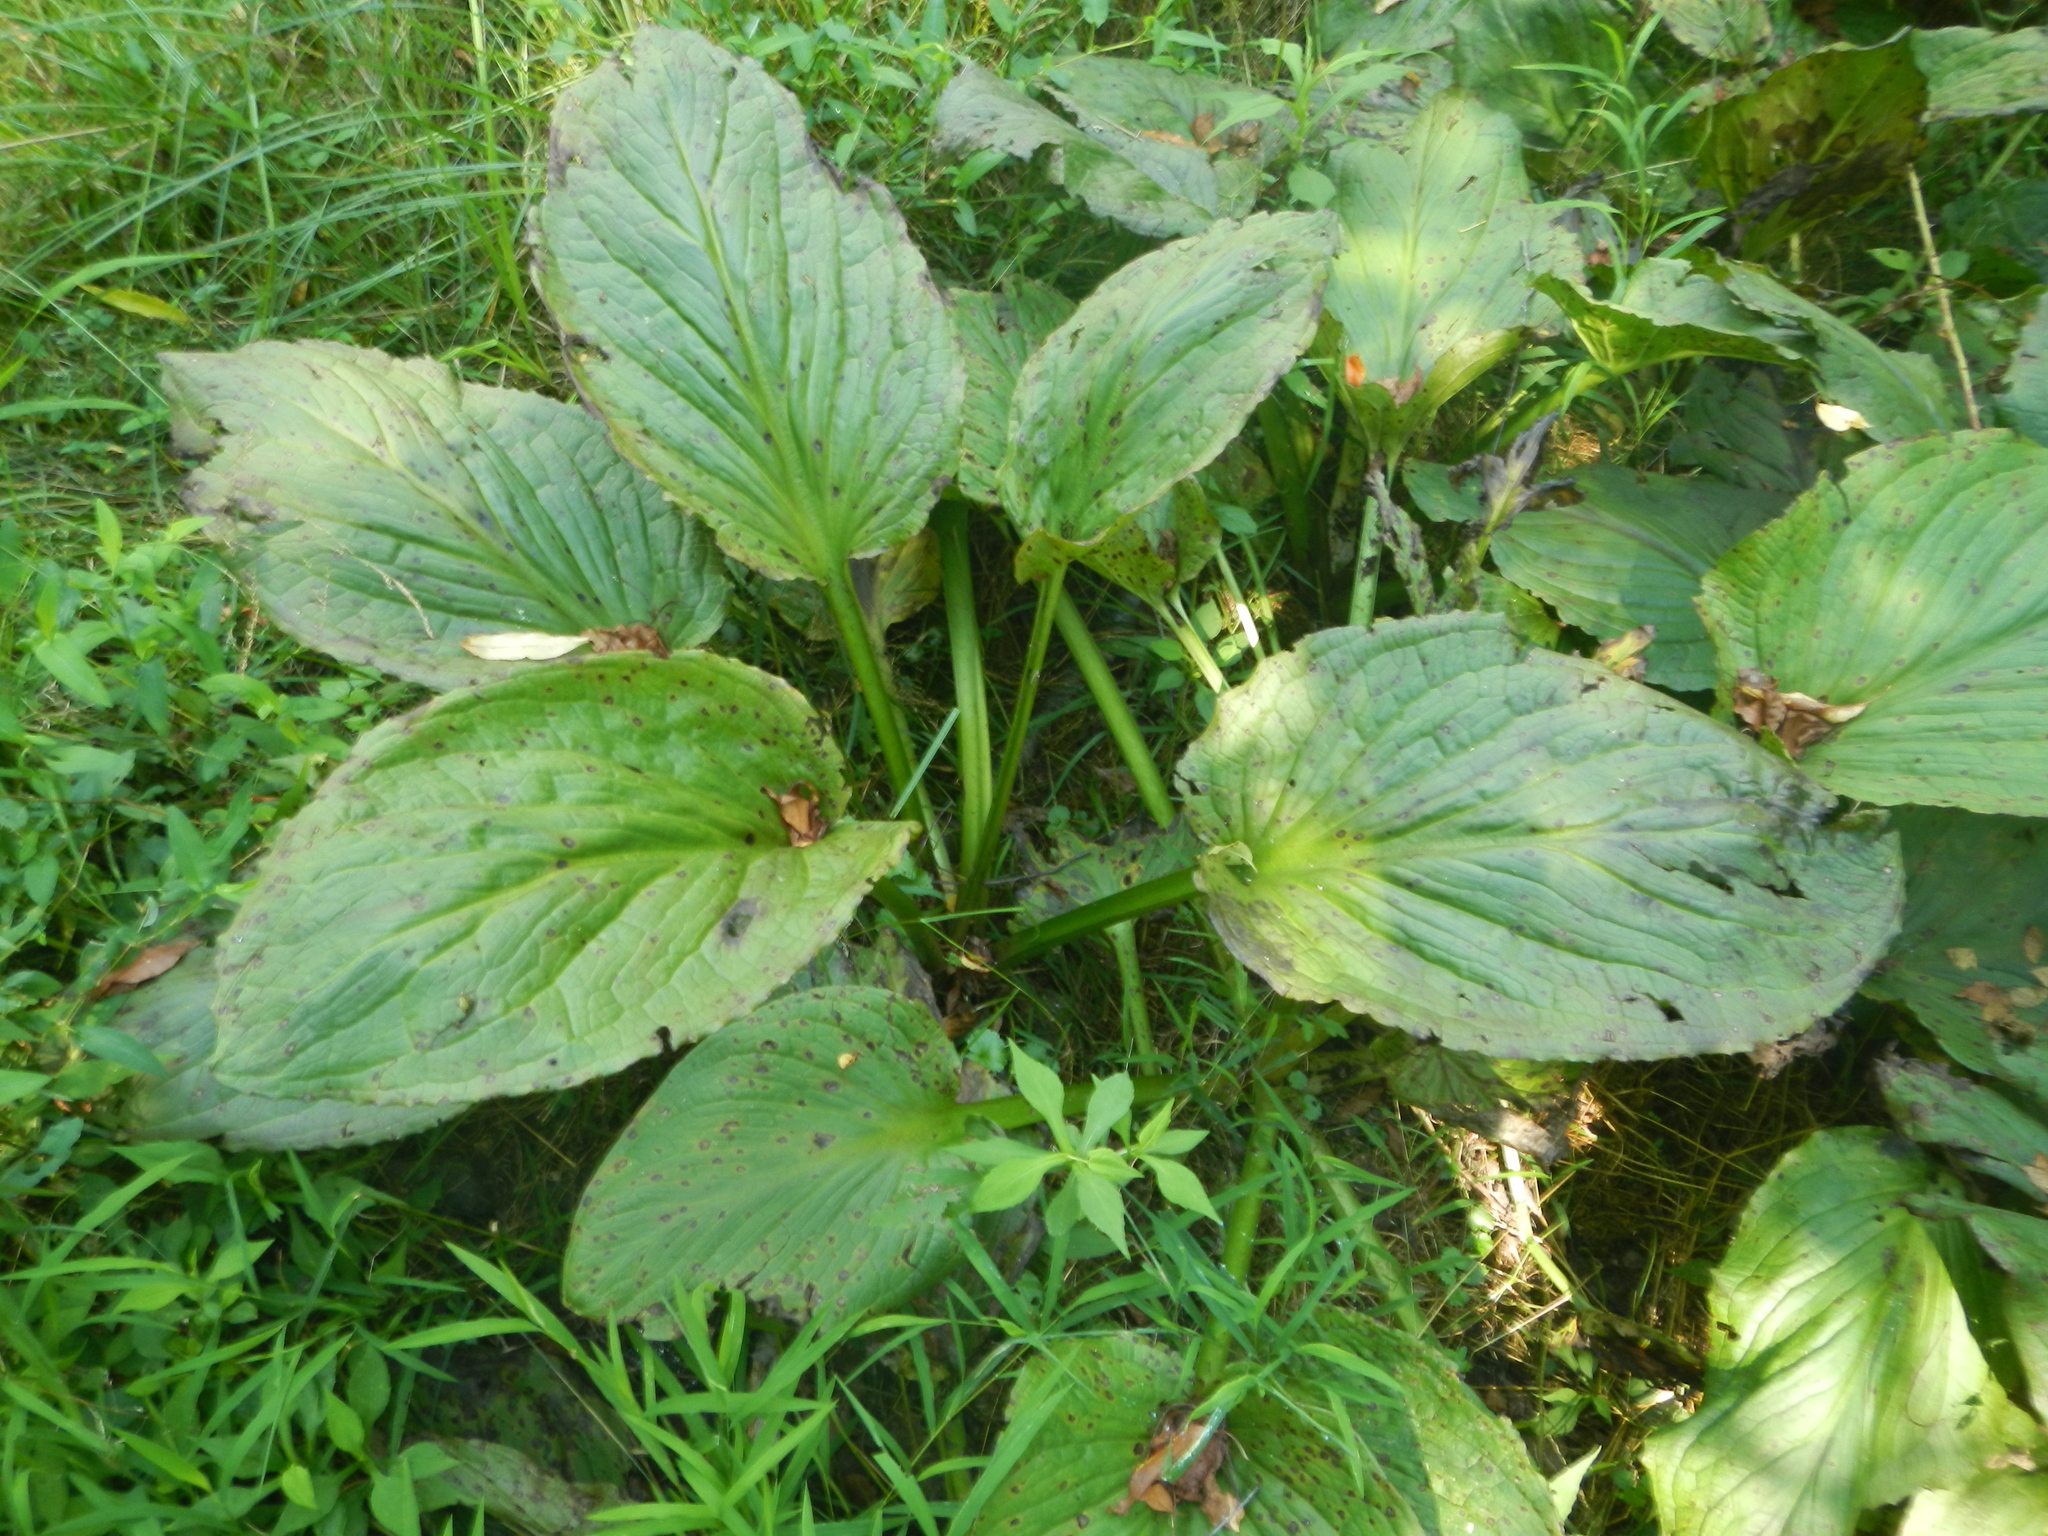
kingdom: Plantae
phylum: Tracheophyta
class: Liliopsida
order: Alismatales
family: Araceae
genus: Symplocarpus
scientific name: Symplocarpus foetidus
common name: Eastern skunk cabbage
